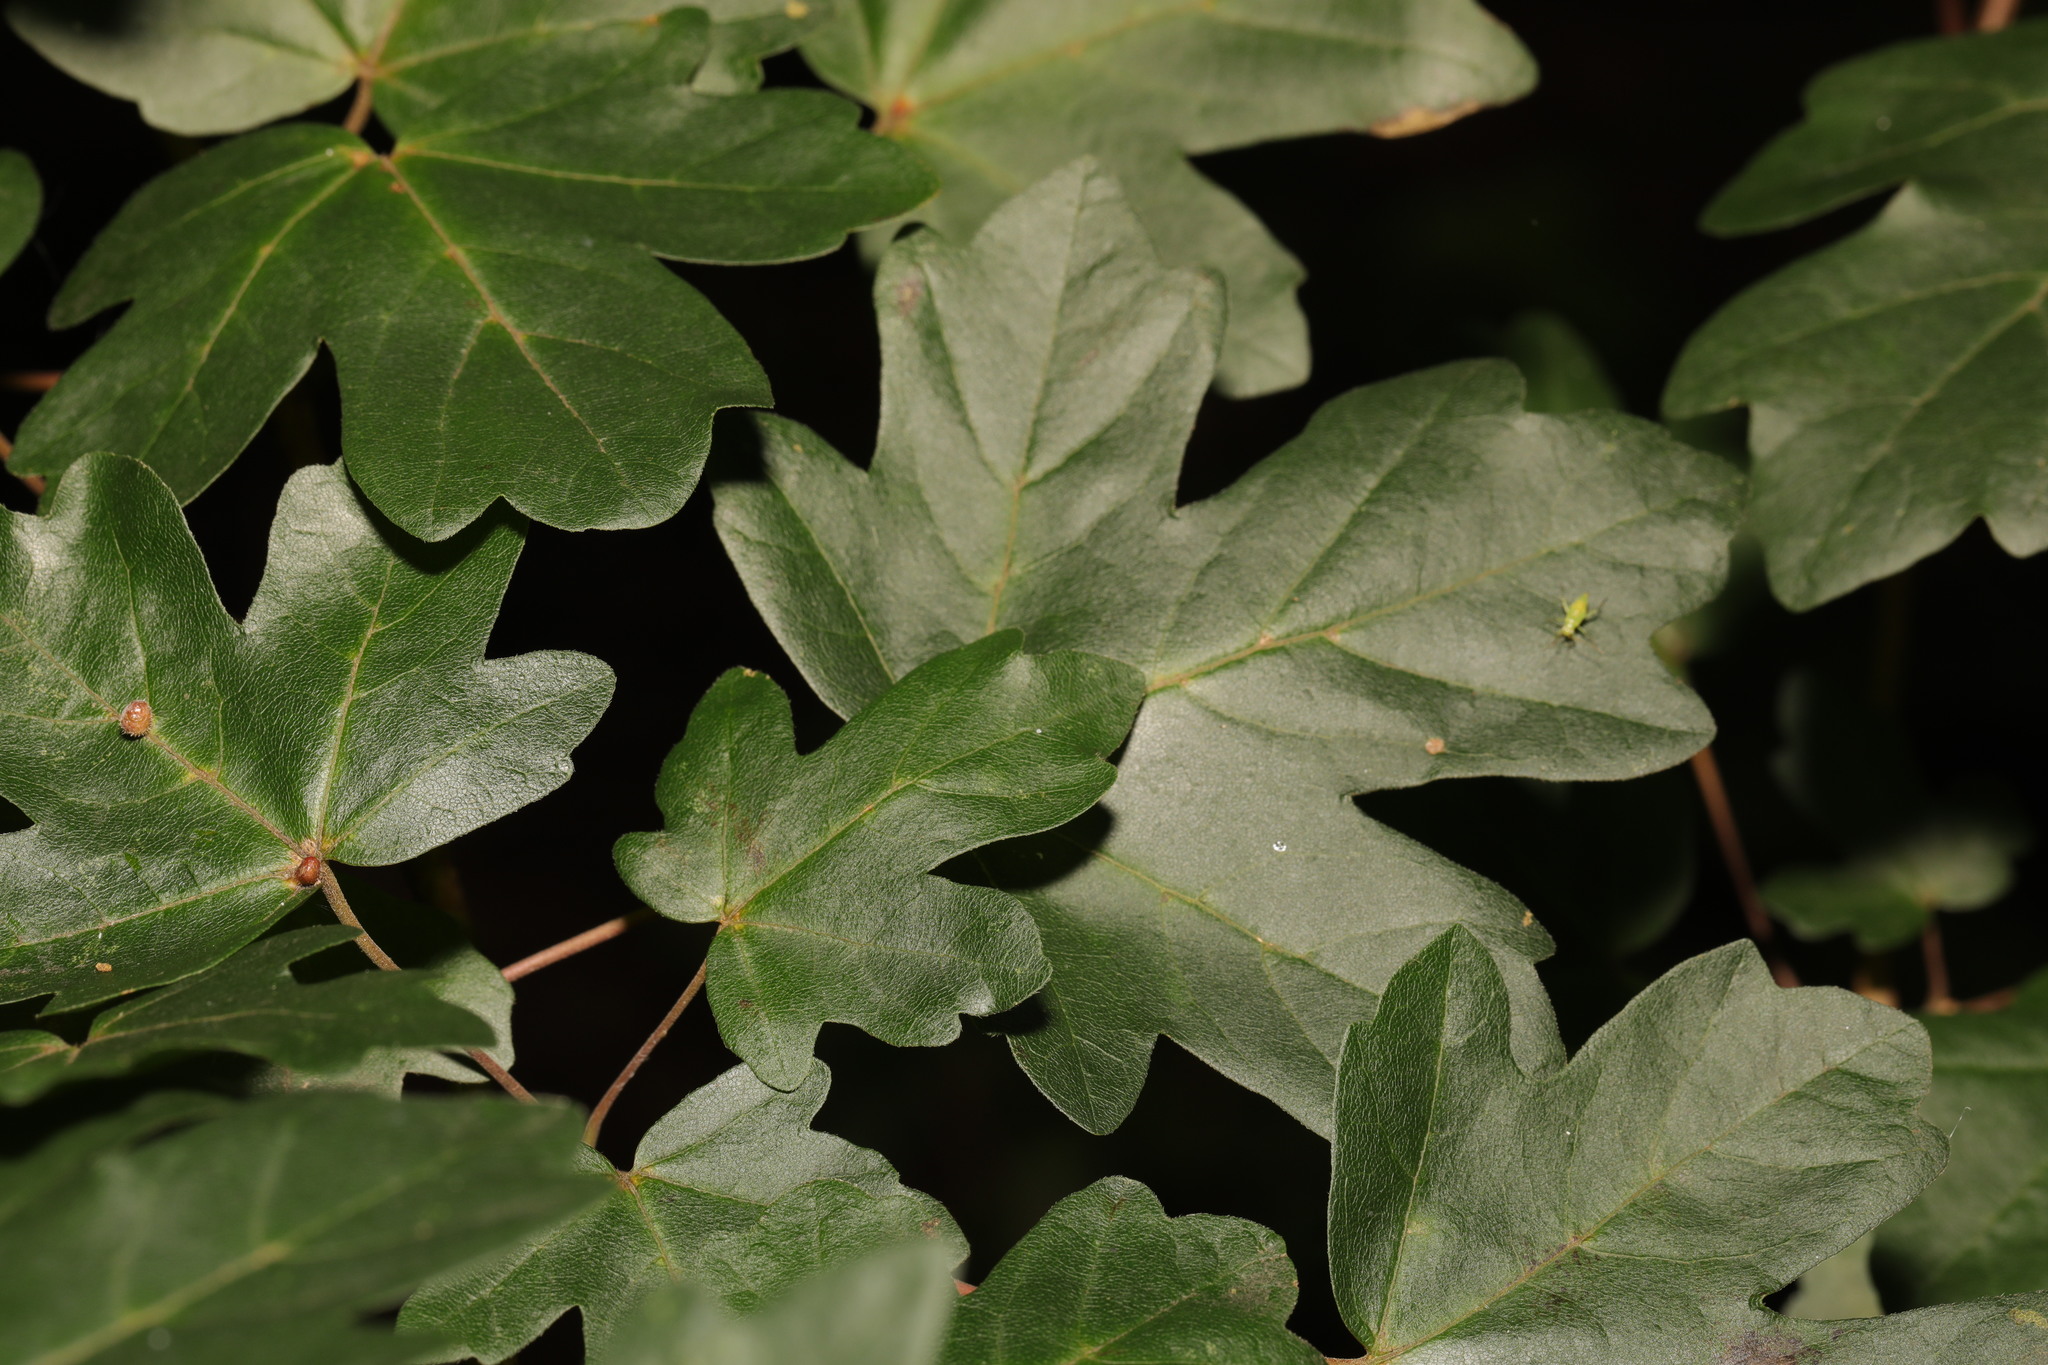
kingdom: Plantae
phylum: Tracheophyta
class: Magnoliopsida
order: Sapindales
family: Sapindaceae
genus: Acer
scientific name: Acer campestre
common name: Field maple
